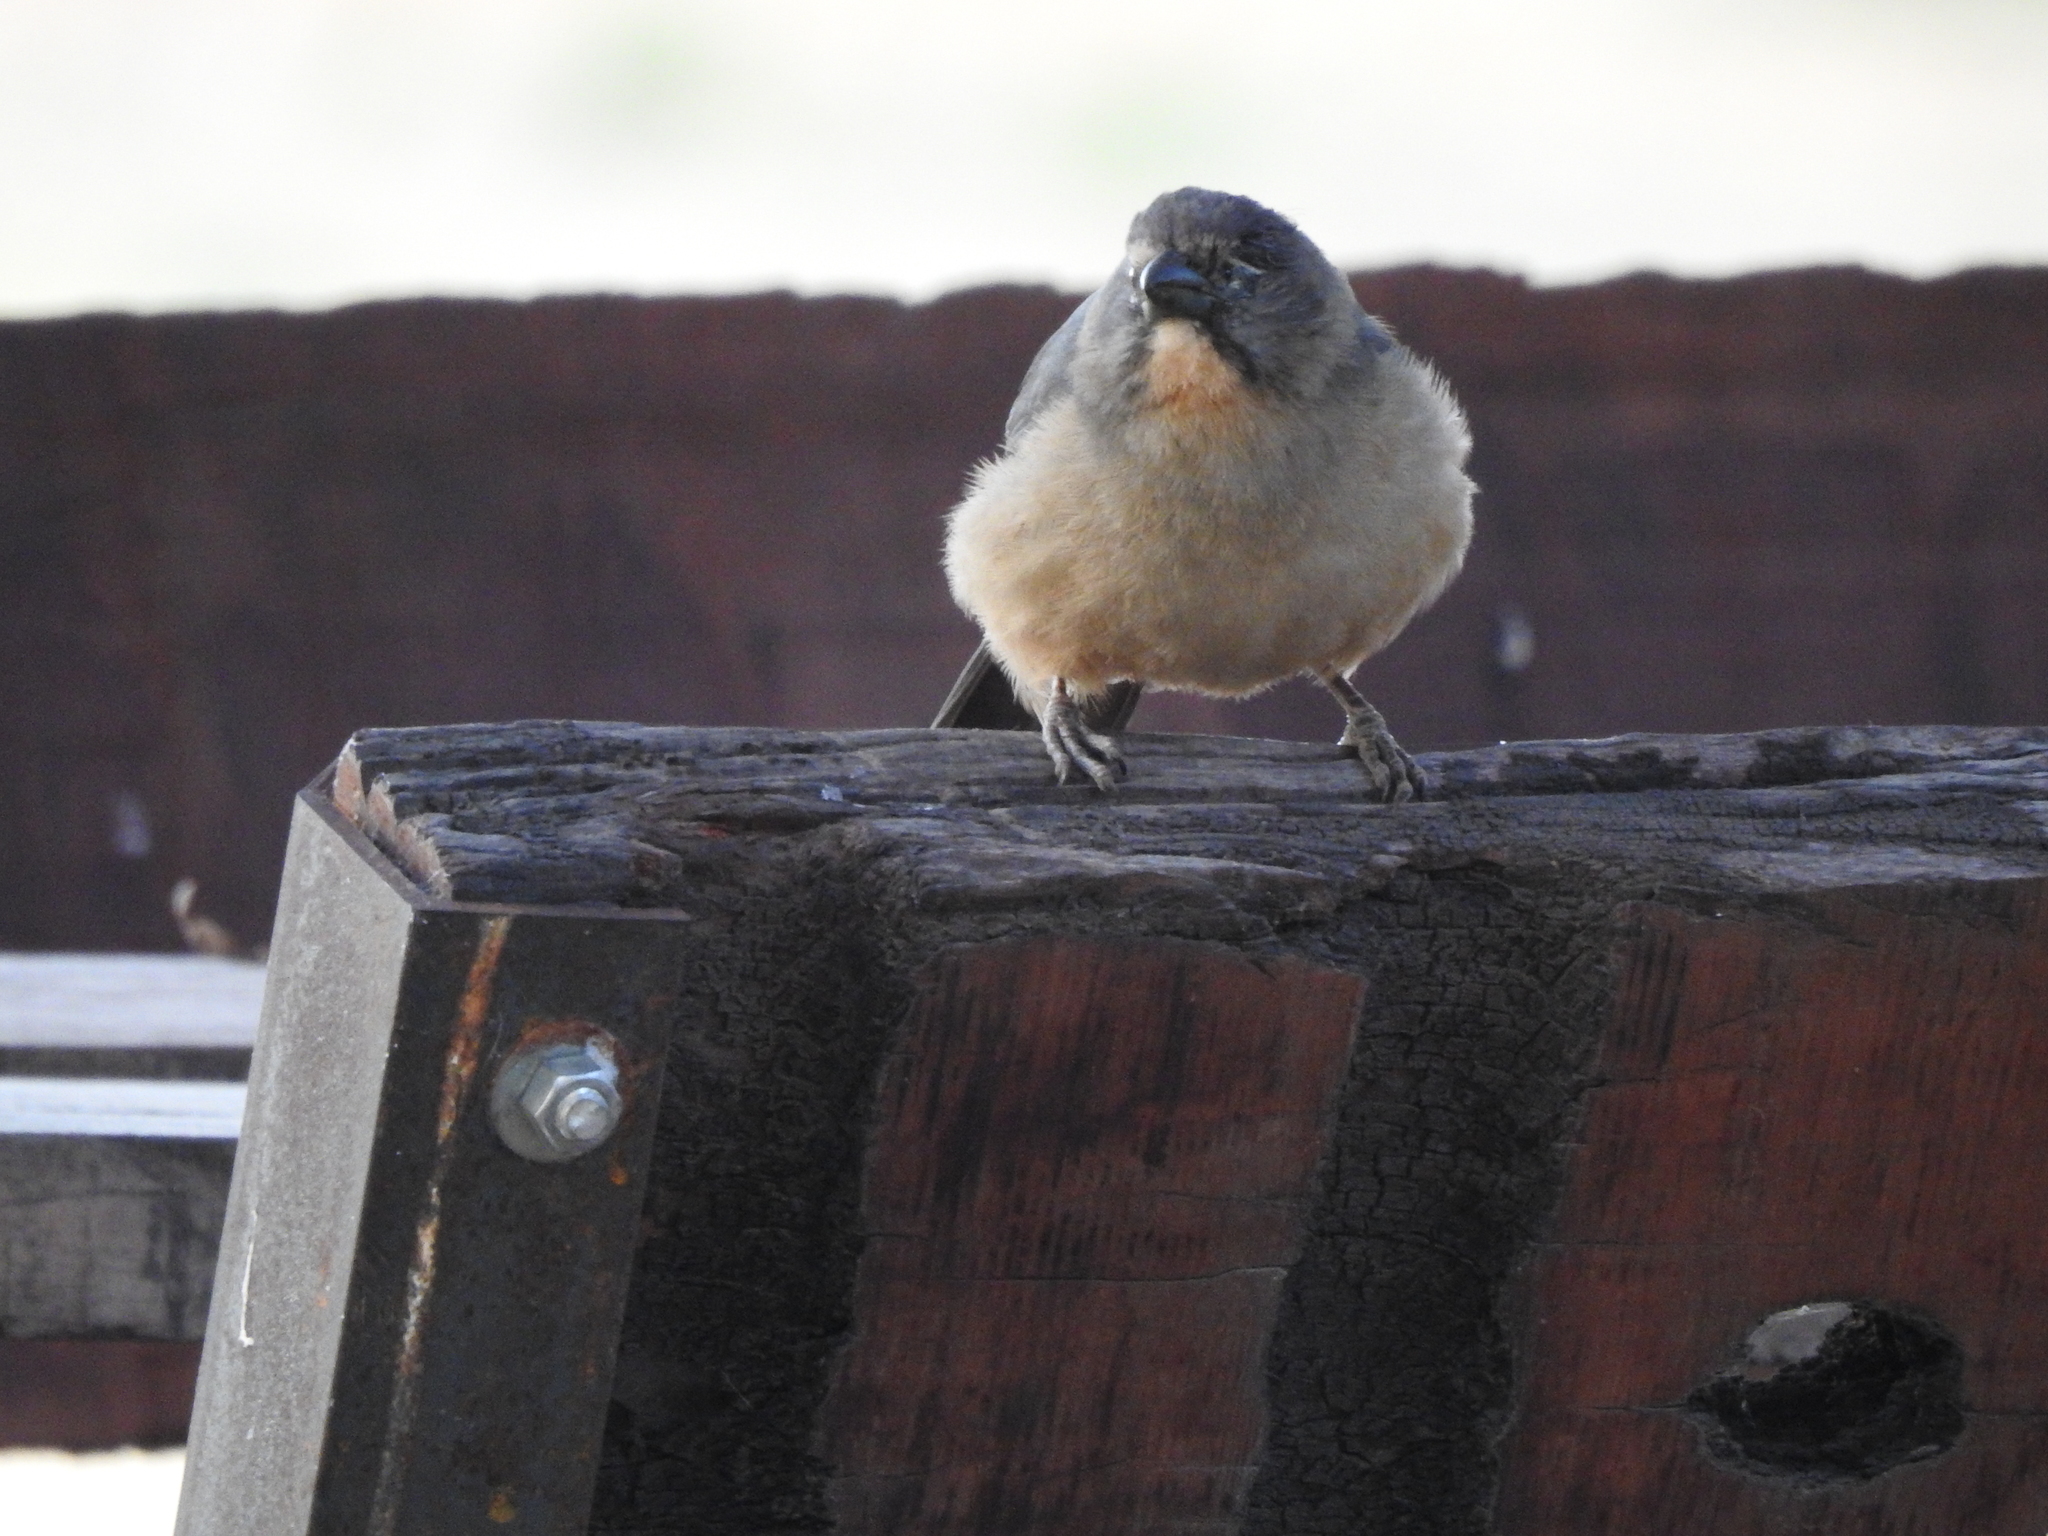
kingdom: Animalia
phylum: Chordata
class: Aves
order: Passeriformes
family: Thraupidae
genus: Saltator
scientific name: Saltator coerulescens
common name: Grayish saltator
